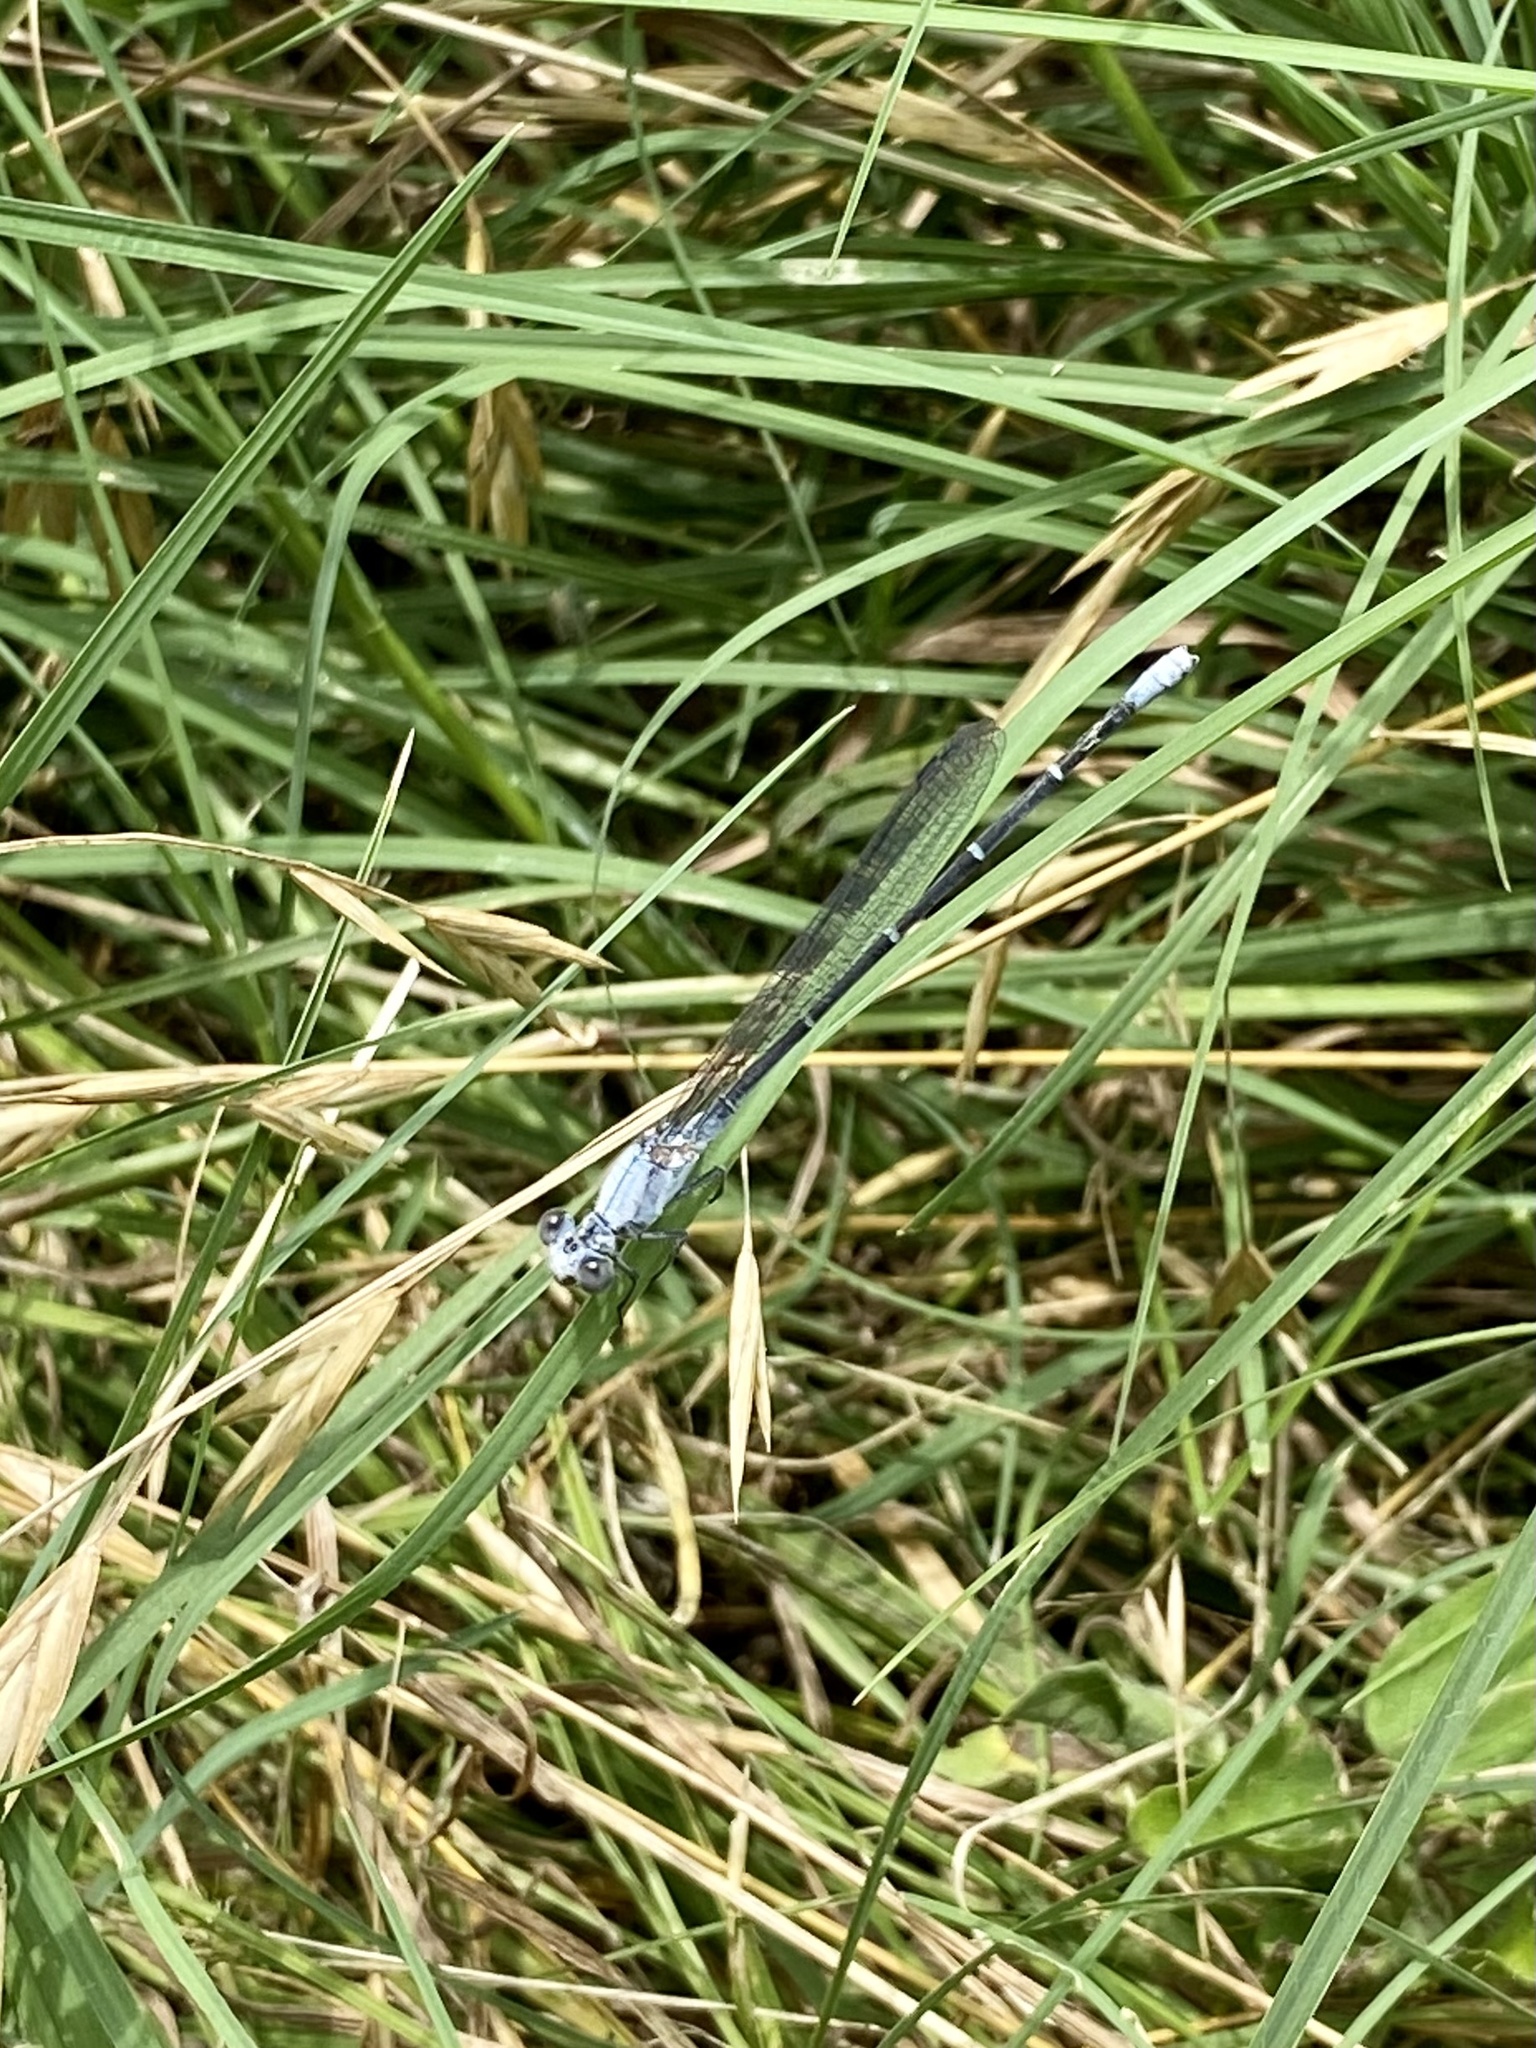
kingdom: Animalia
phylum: Arthropoda
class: Insecta
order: Odonata
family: Coenagrionidae
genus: Argia
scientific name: Argia moesta
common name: Powdered dancer
